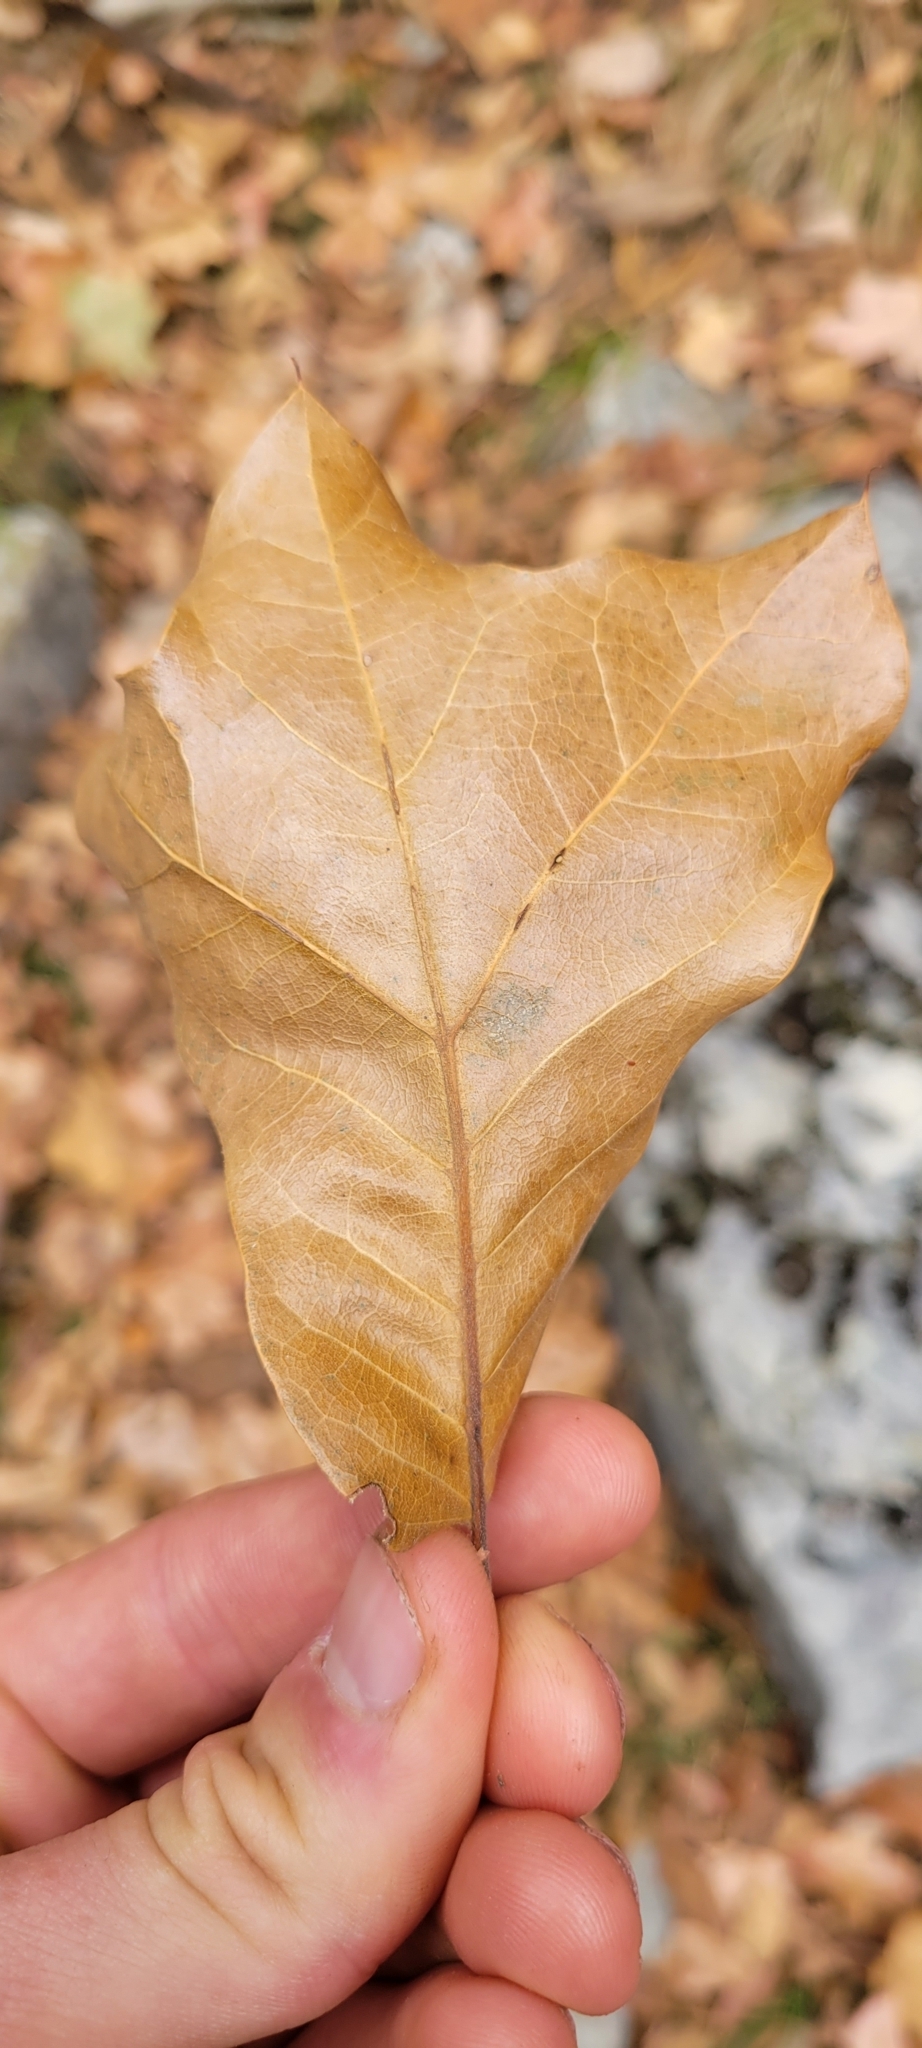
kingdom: Plantae
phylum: Tracheophyta
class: Magnoliopsida
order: Fagales
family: Fagaceae
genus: Quercus
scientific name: Quercus marilandica
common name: Blackjack oak
